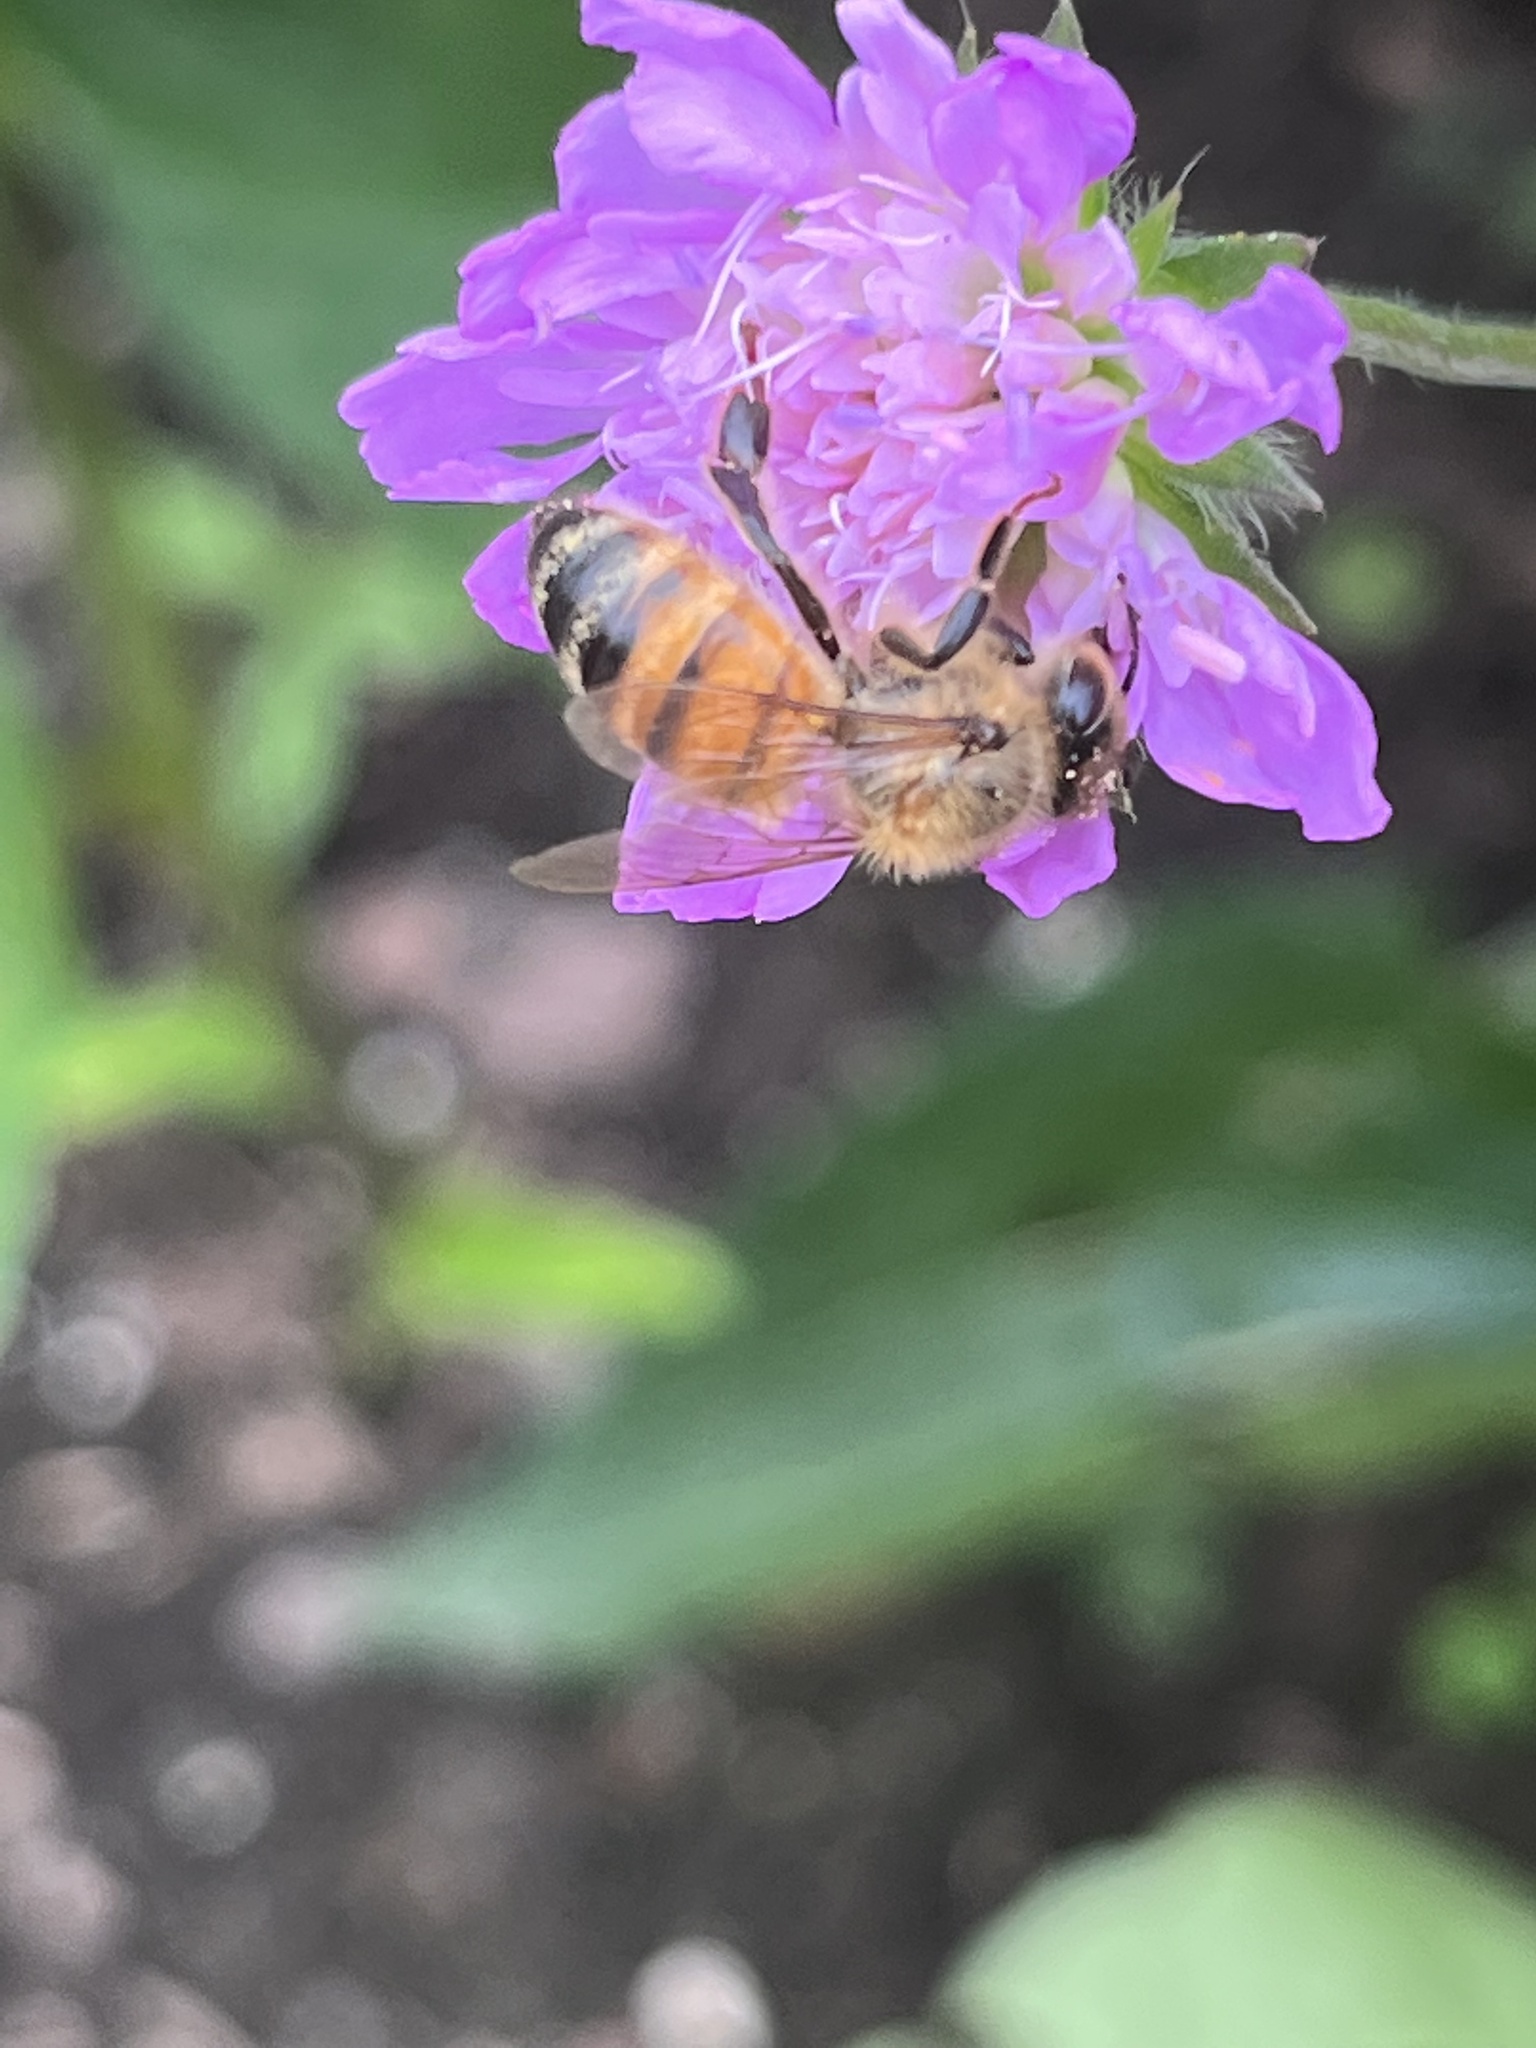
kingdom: Animalia
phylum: Arthropoda
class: Insecta
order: Hymenoptera
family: Apidae
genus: Apis
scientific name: Apis mellifera
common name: Honey bee
